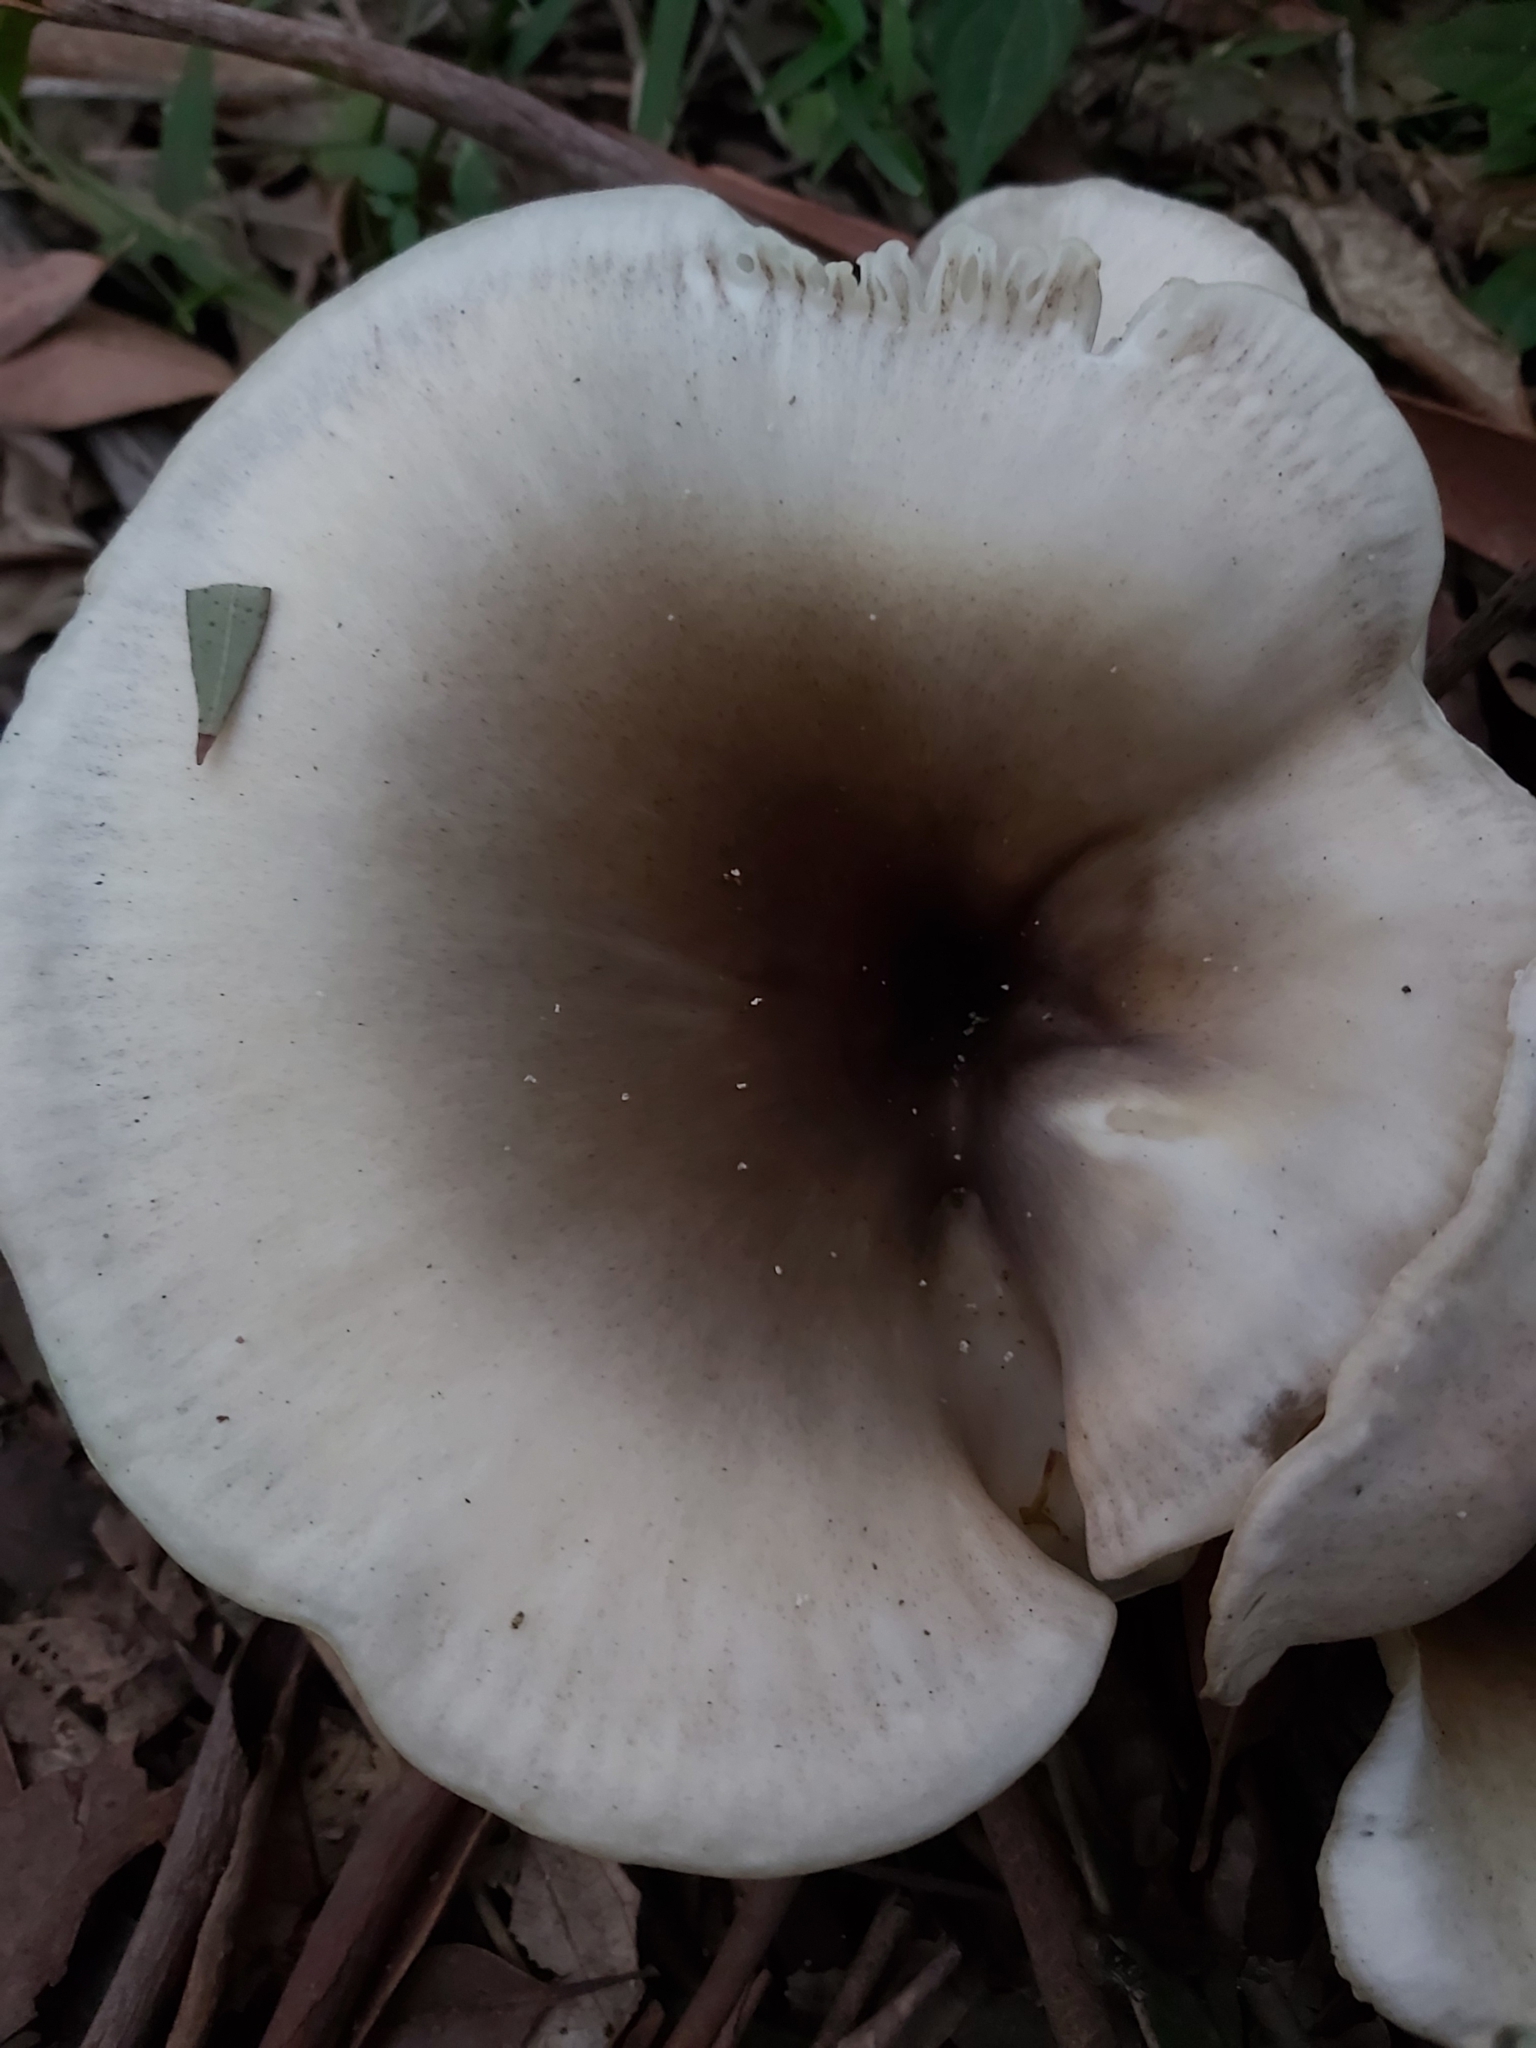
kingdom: Fungi
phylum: Basidiomycota
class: Agaricomycetes
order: Agaricales
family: Omphalotaceae
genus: Omphalotus
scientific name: Omphalotus nidiformis
